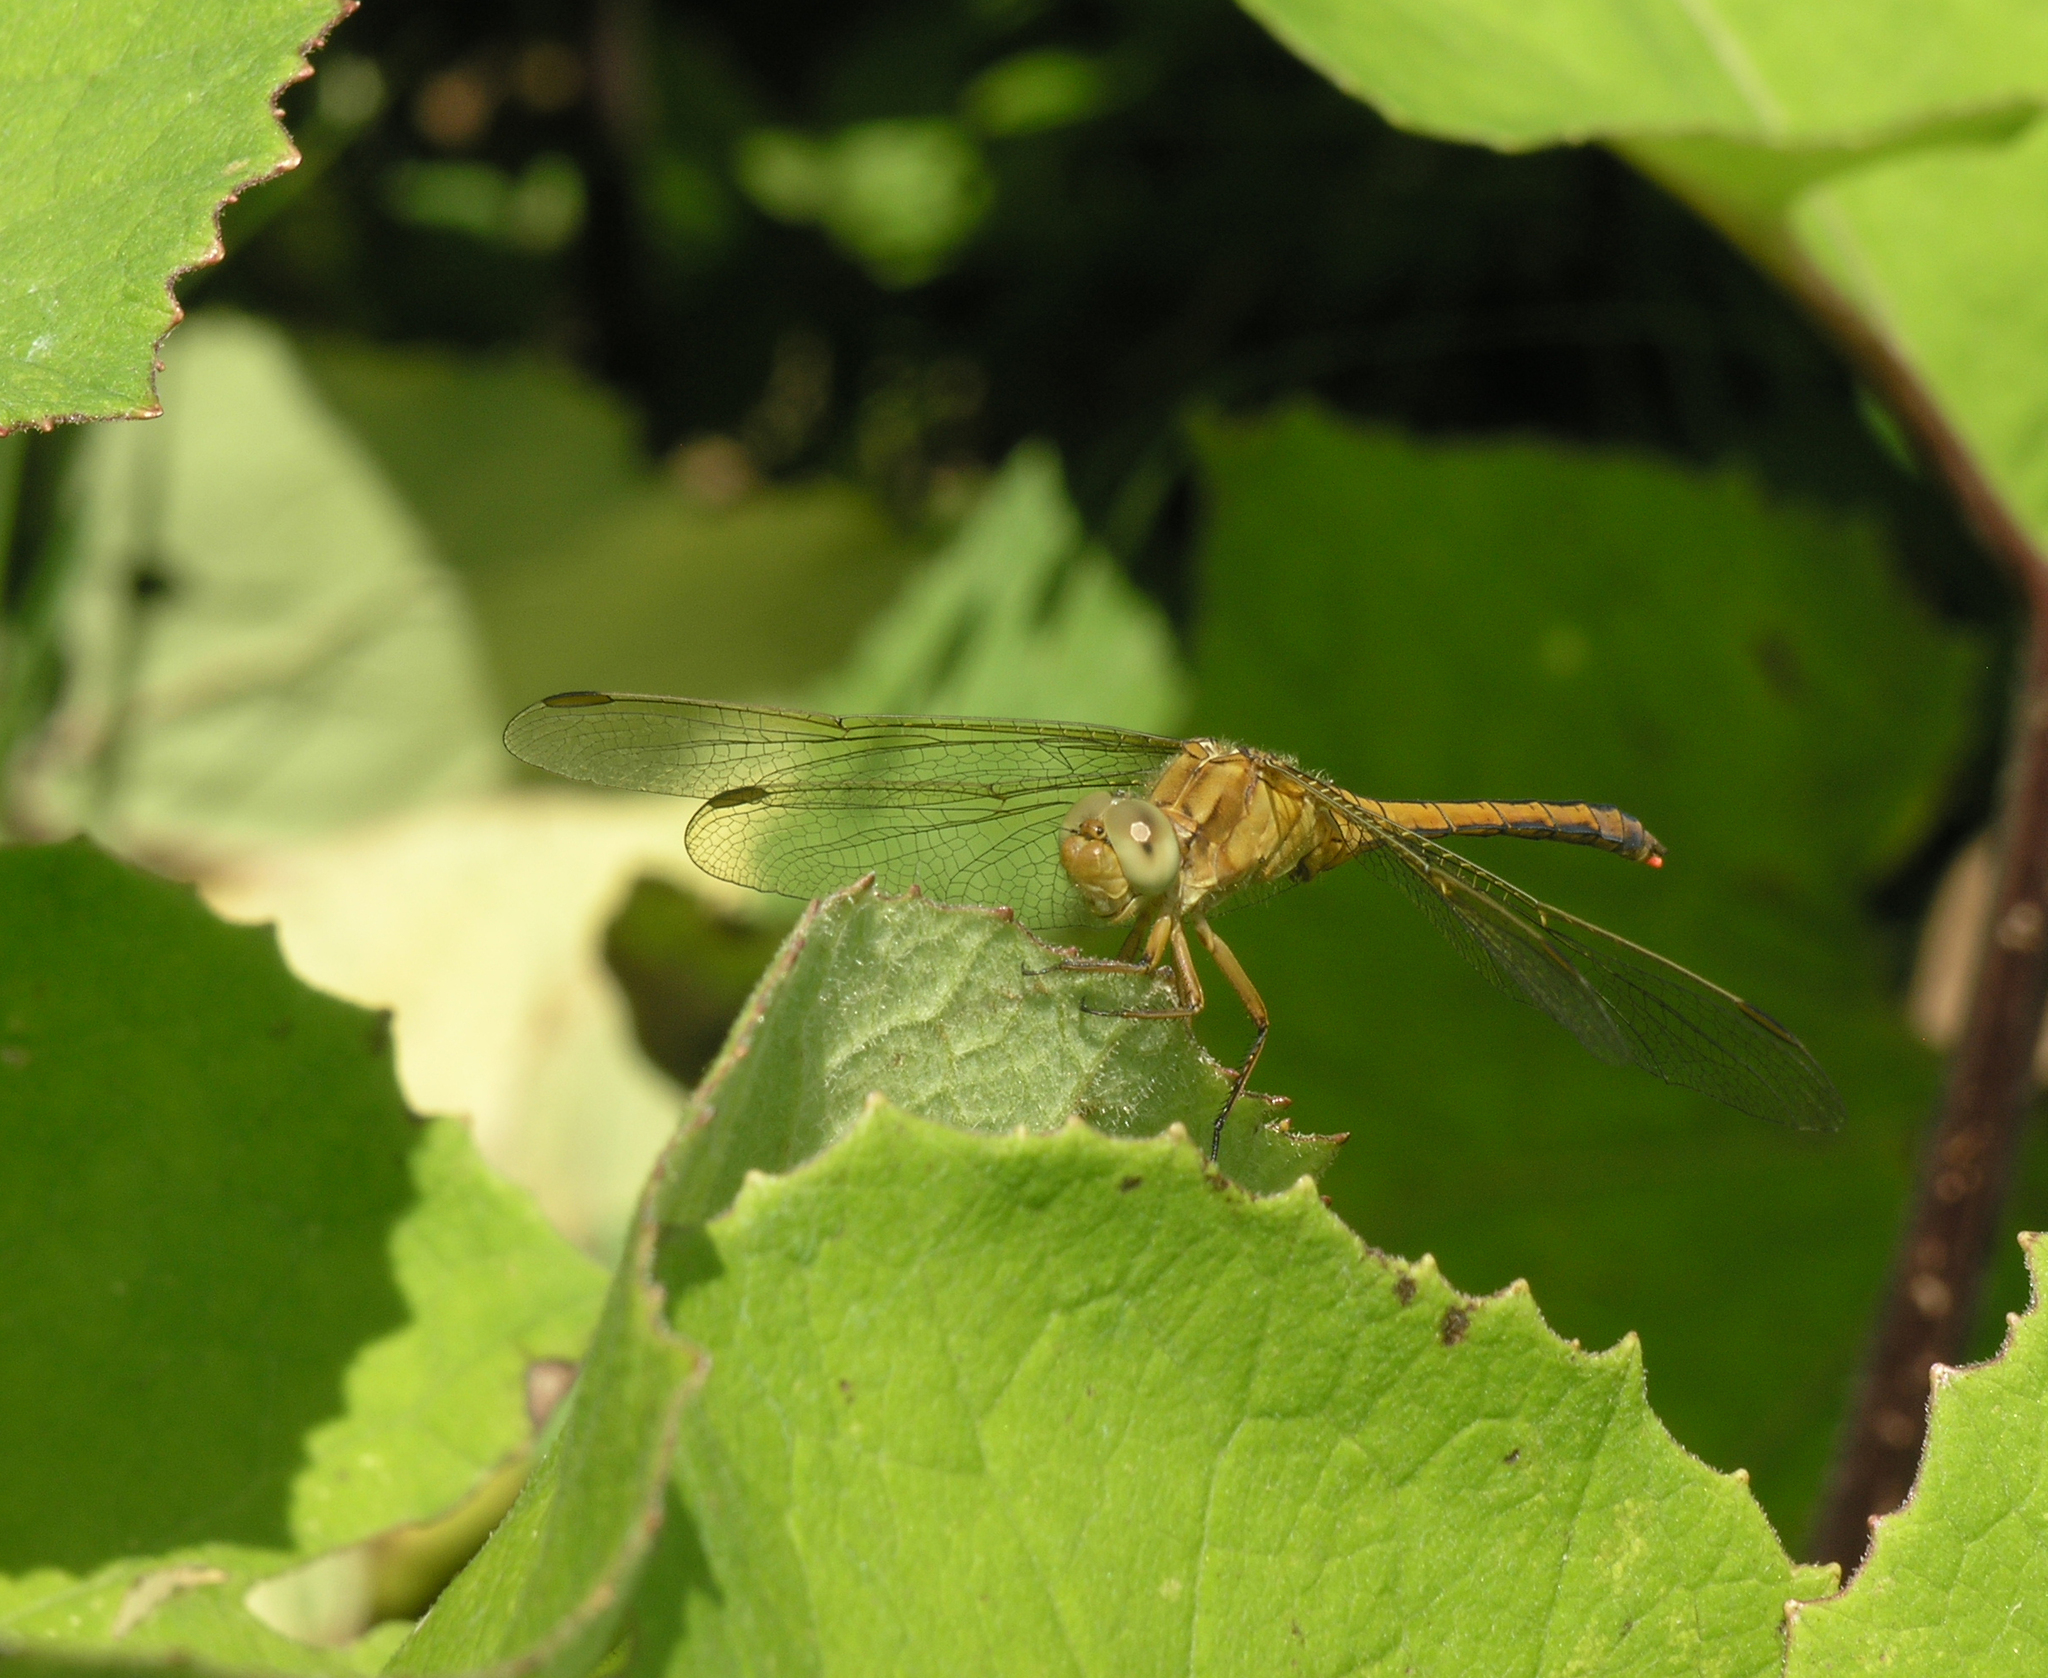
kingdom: Animalia
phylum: Arthropoda
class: Insecta
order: Odonata
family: Libellulidae
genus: Orthetrum
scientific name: Orthetrum coerulescens
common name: Keeled skimmer
